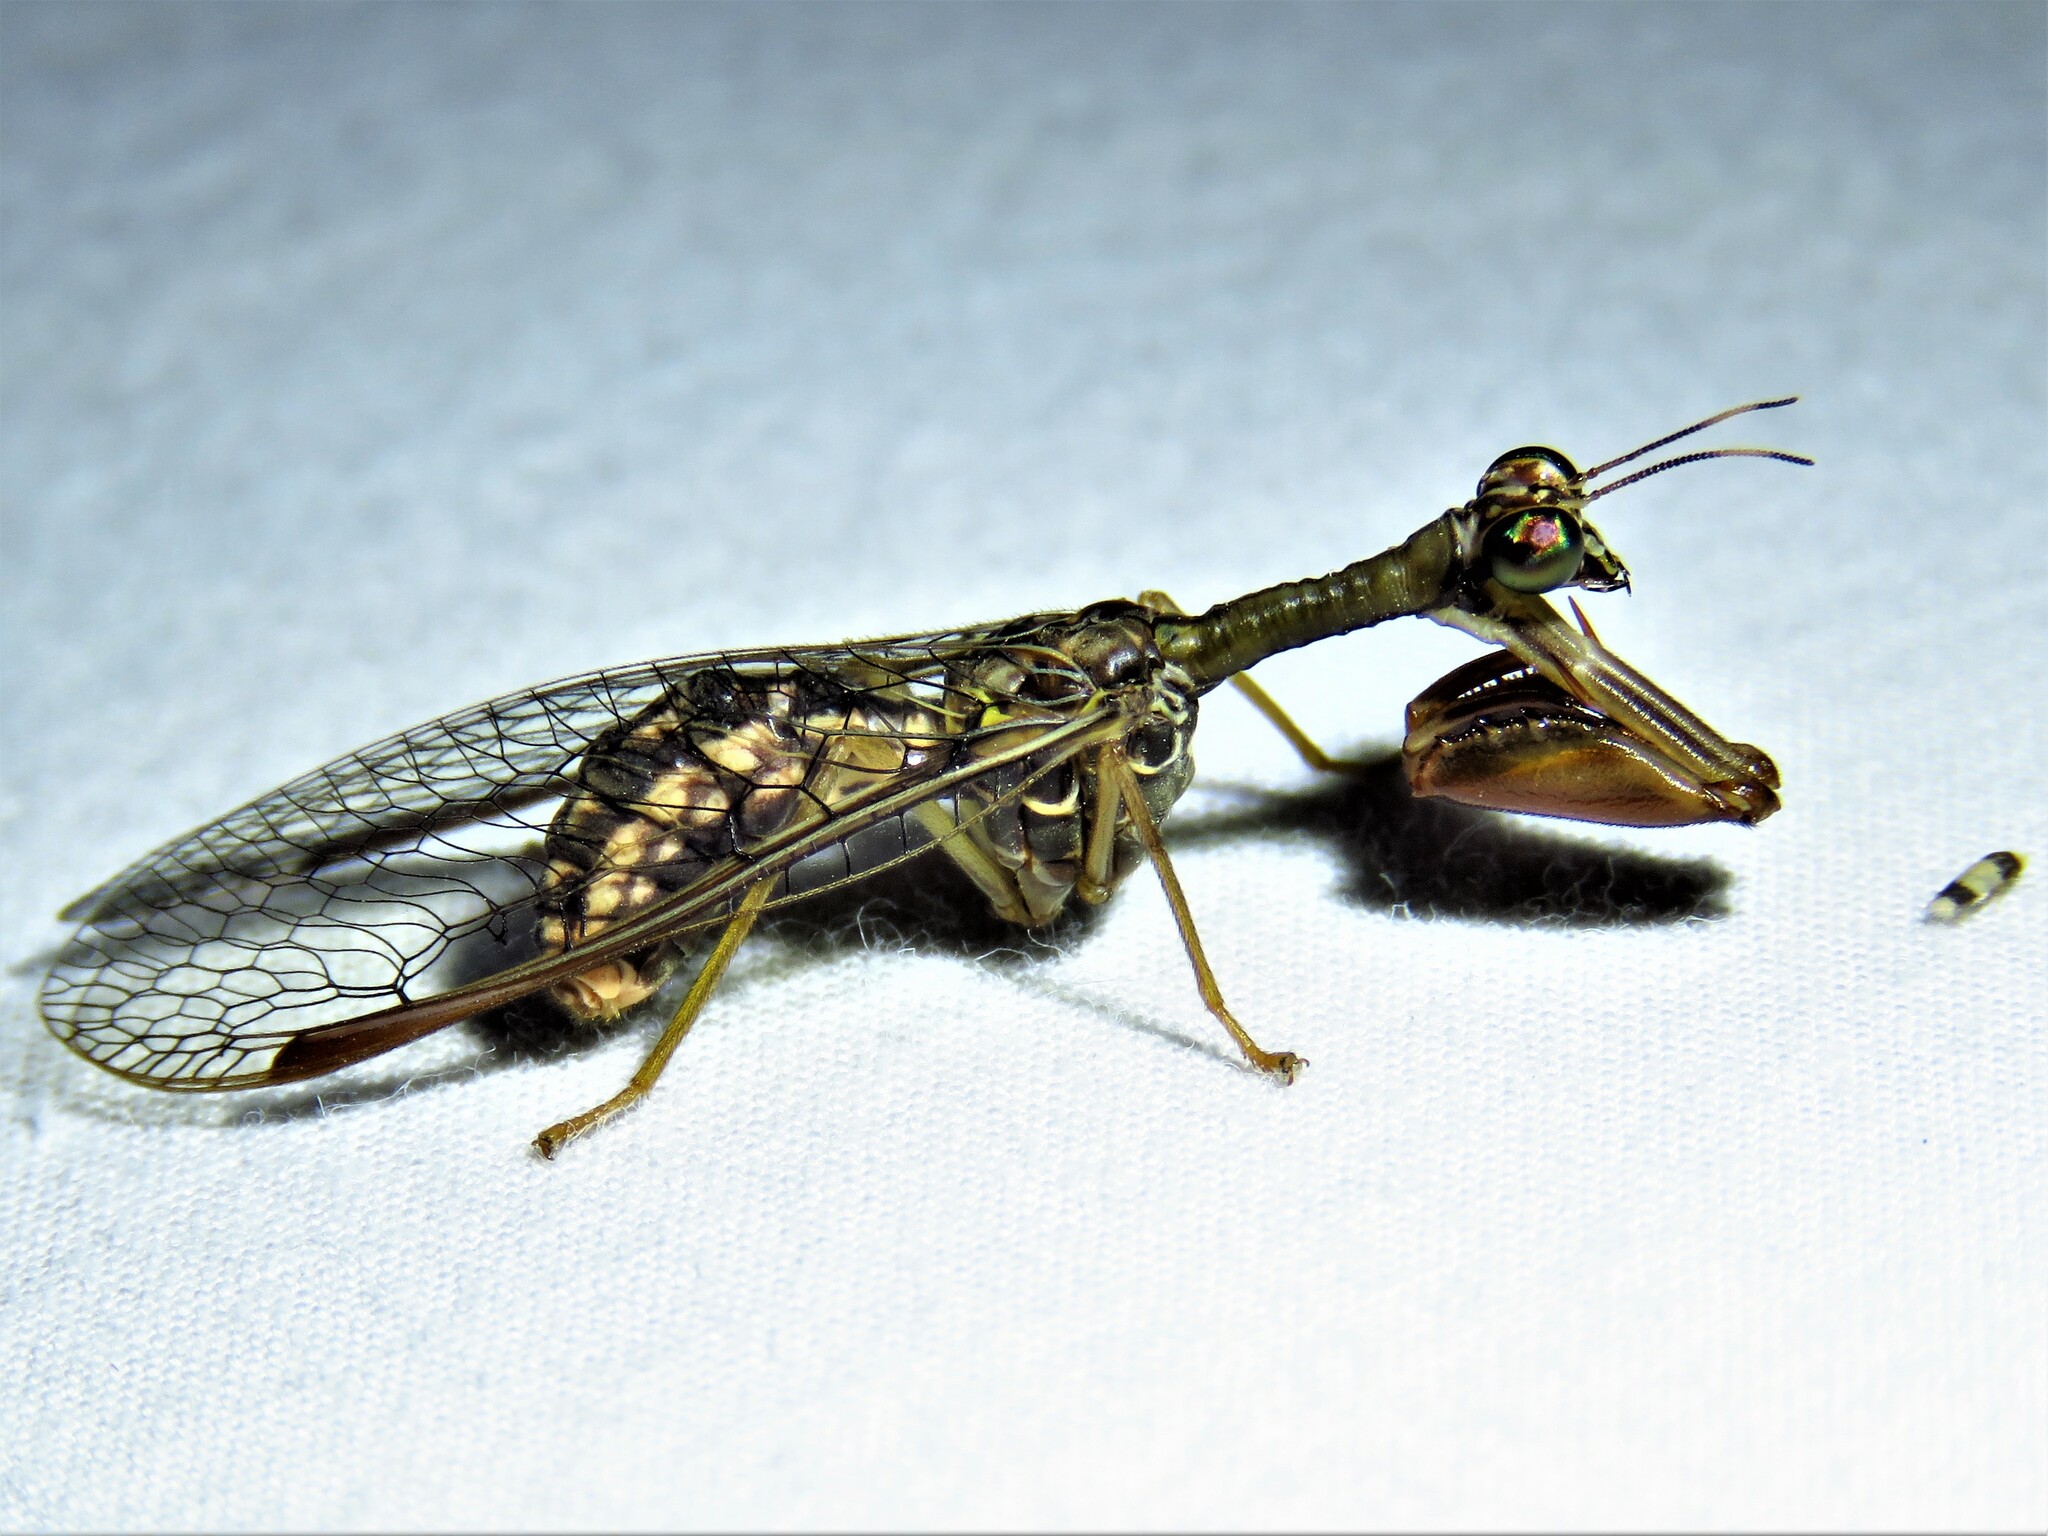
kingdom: Animalia
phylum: Arthropoda
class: Insecta
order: Neuroptera
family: Mantispidae
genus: Dicromantispa
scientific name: Dicromantispa sayi
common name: Say's mantidfly
